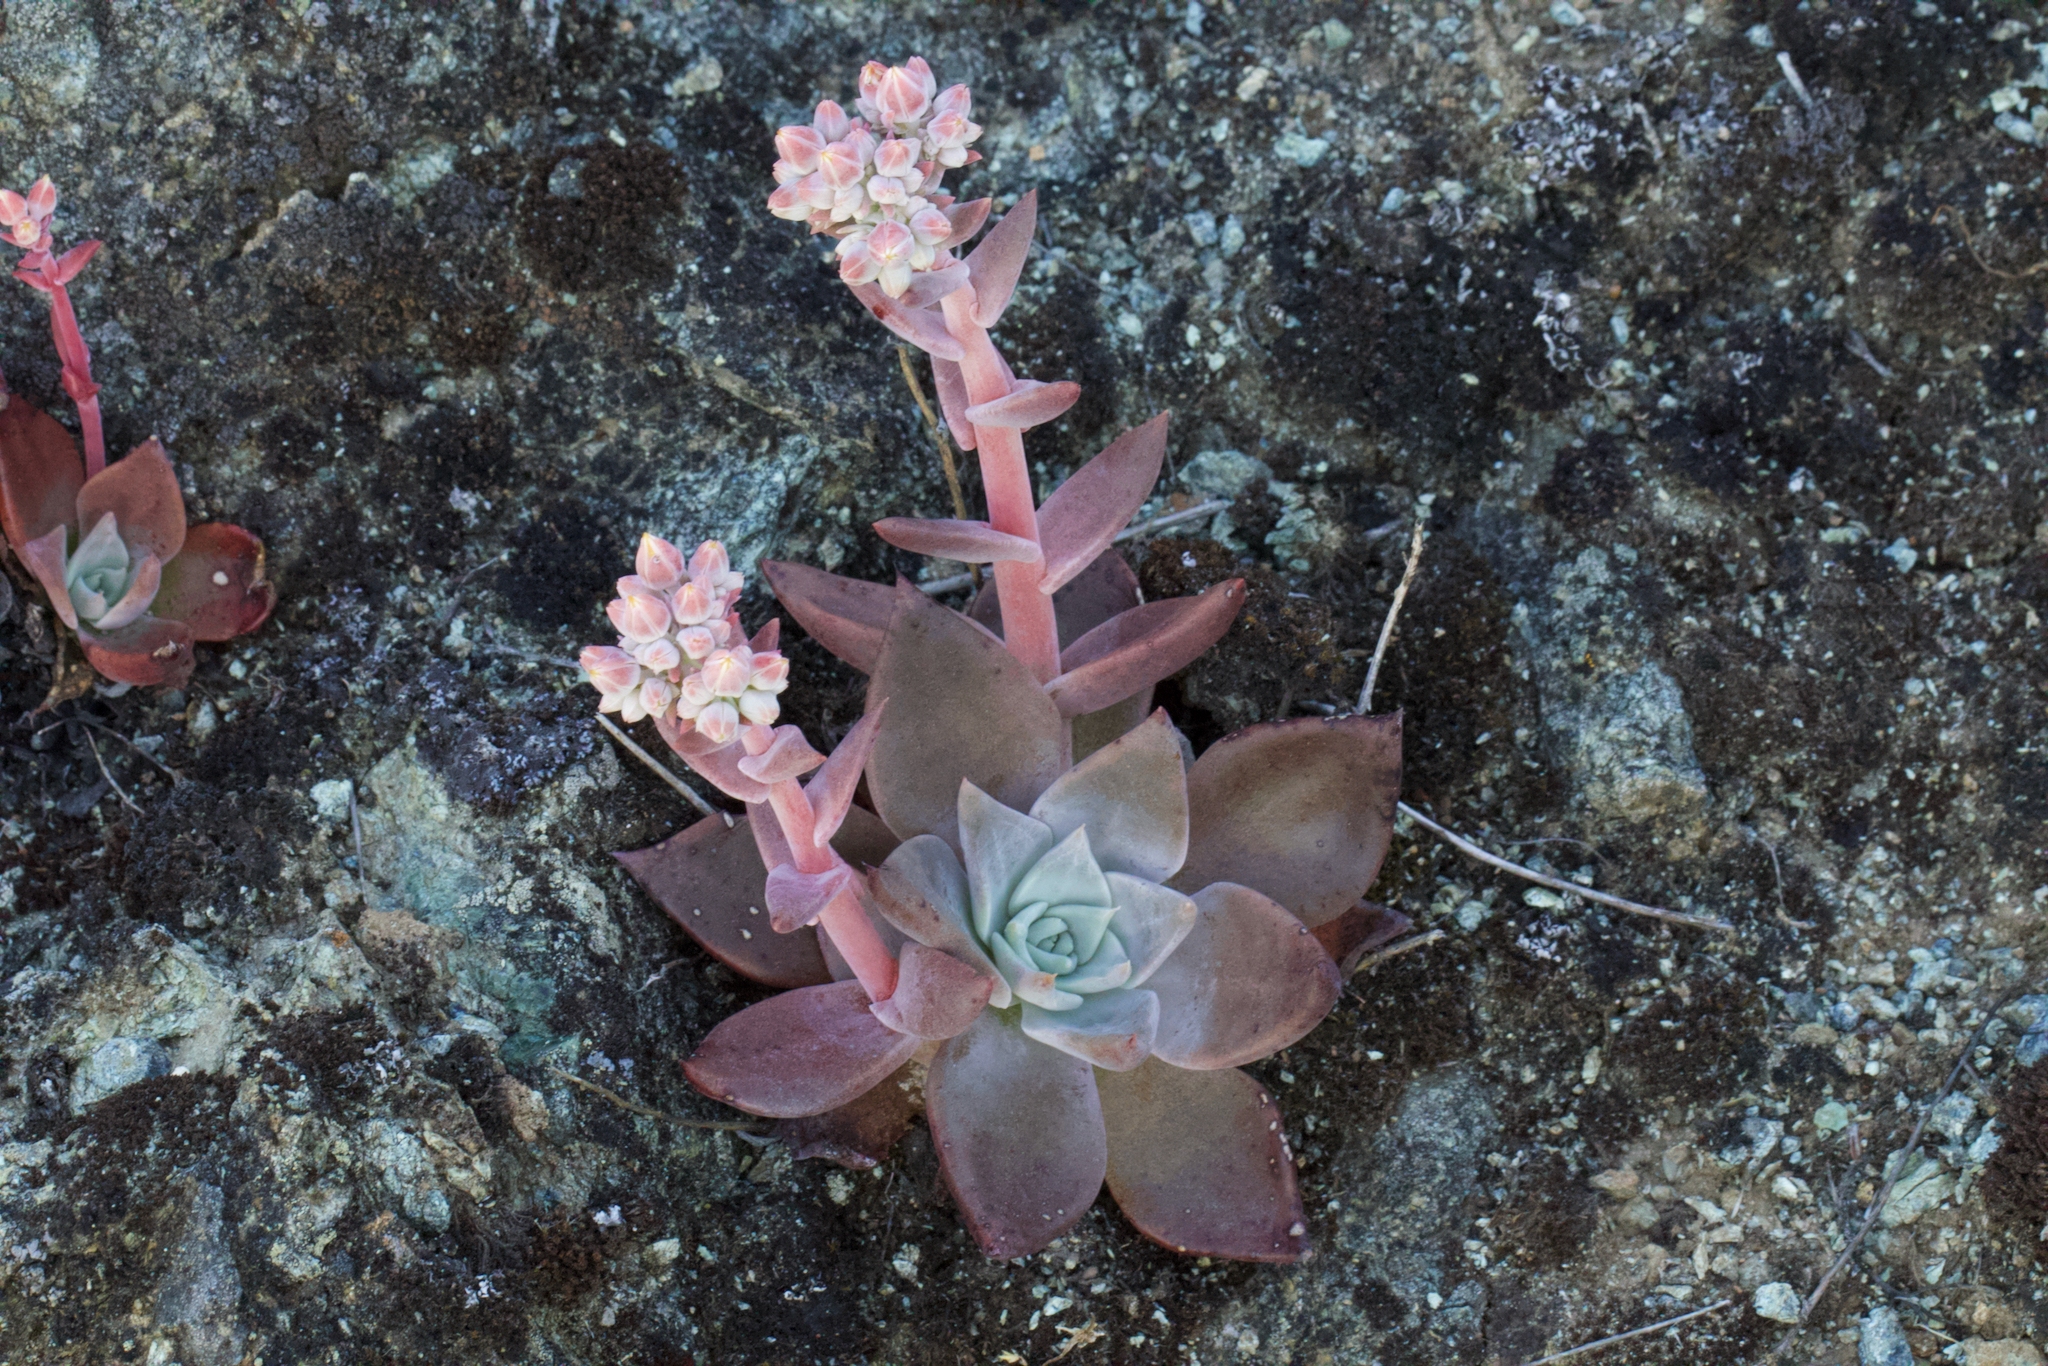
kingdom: Plantae
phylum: Tracheophyta
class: Magnoliopsida
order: Saxifragales
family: Crassulaceae
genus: Dudleya
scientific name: Dudleya cymosa
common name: Canyon dudleya
